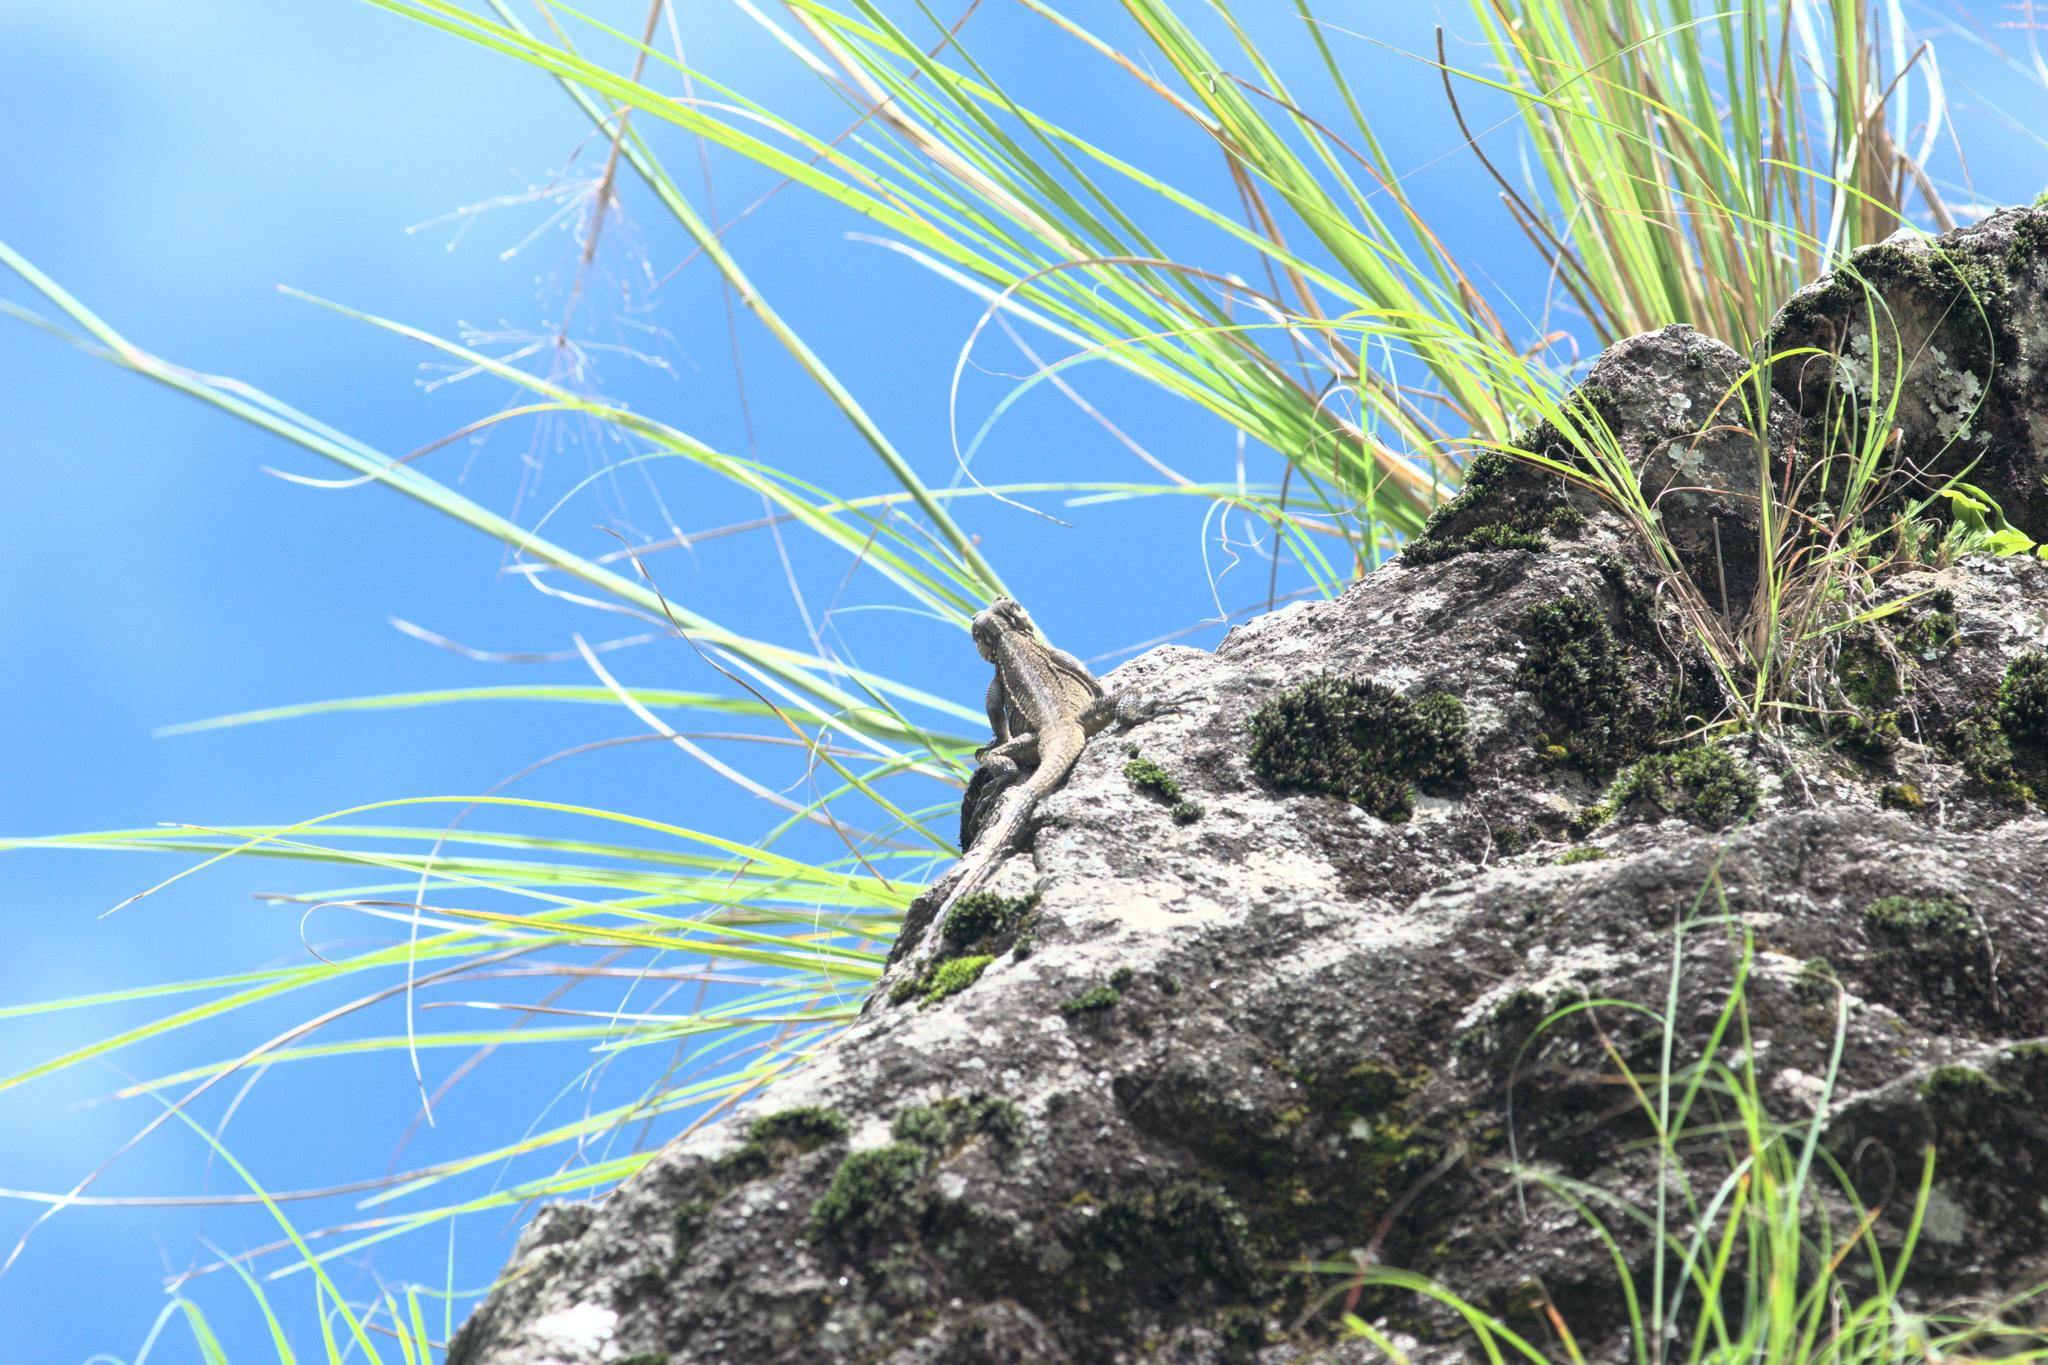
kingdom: Animalia
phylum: Chordata
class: Squamata
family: Agamidae
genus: Laudakia
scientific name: Laudakia tuberculata
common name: Kashmir rock agama
